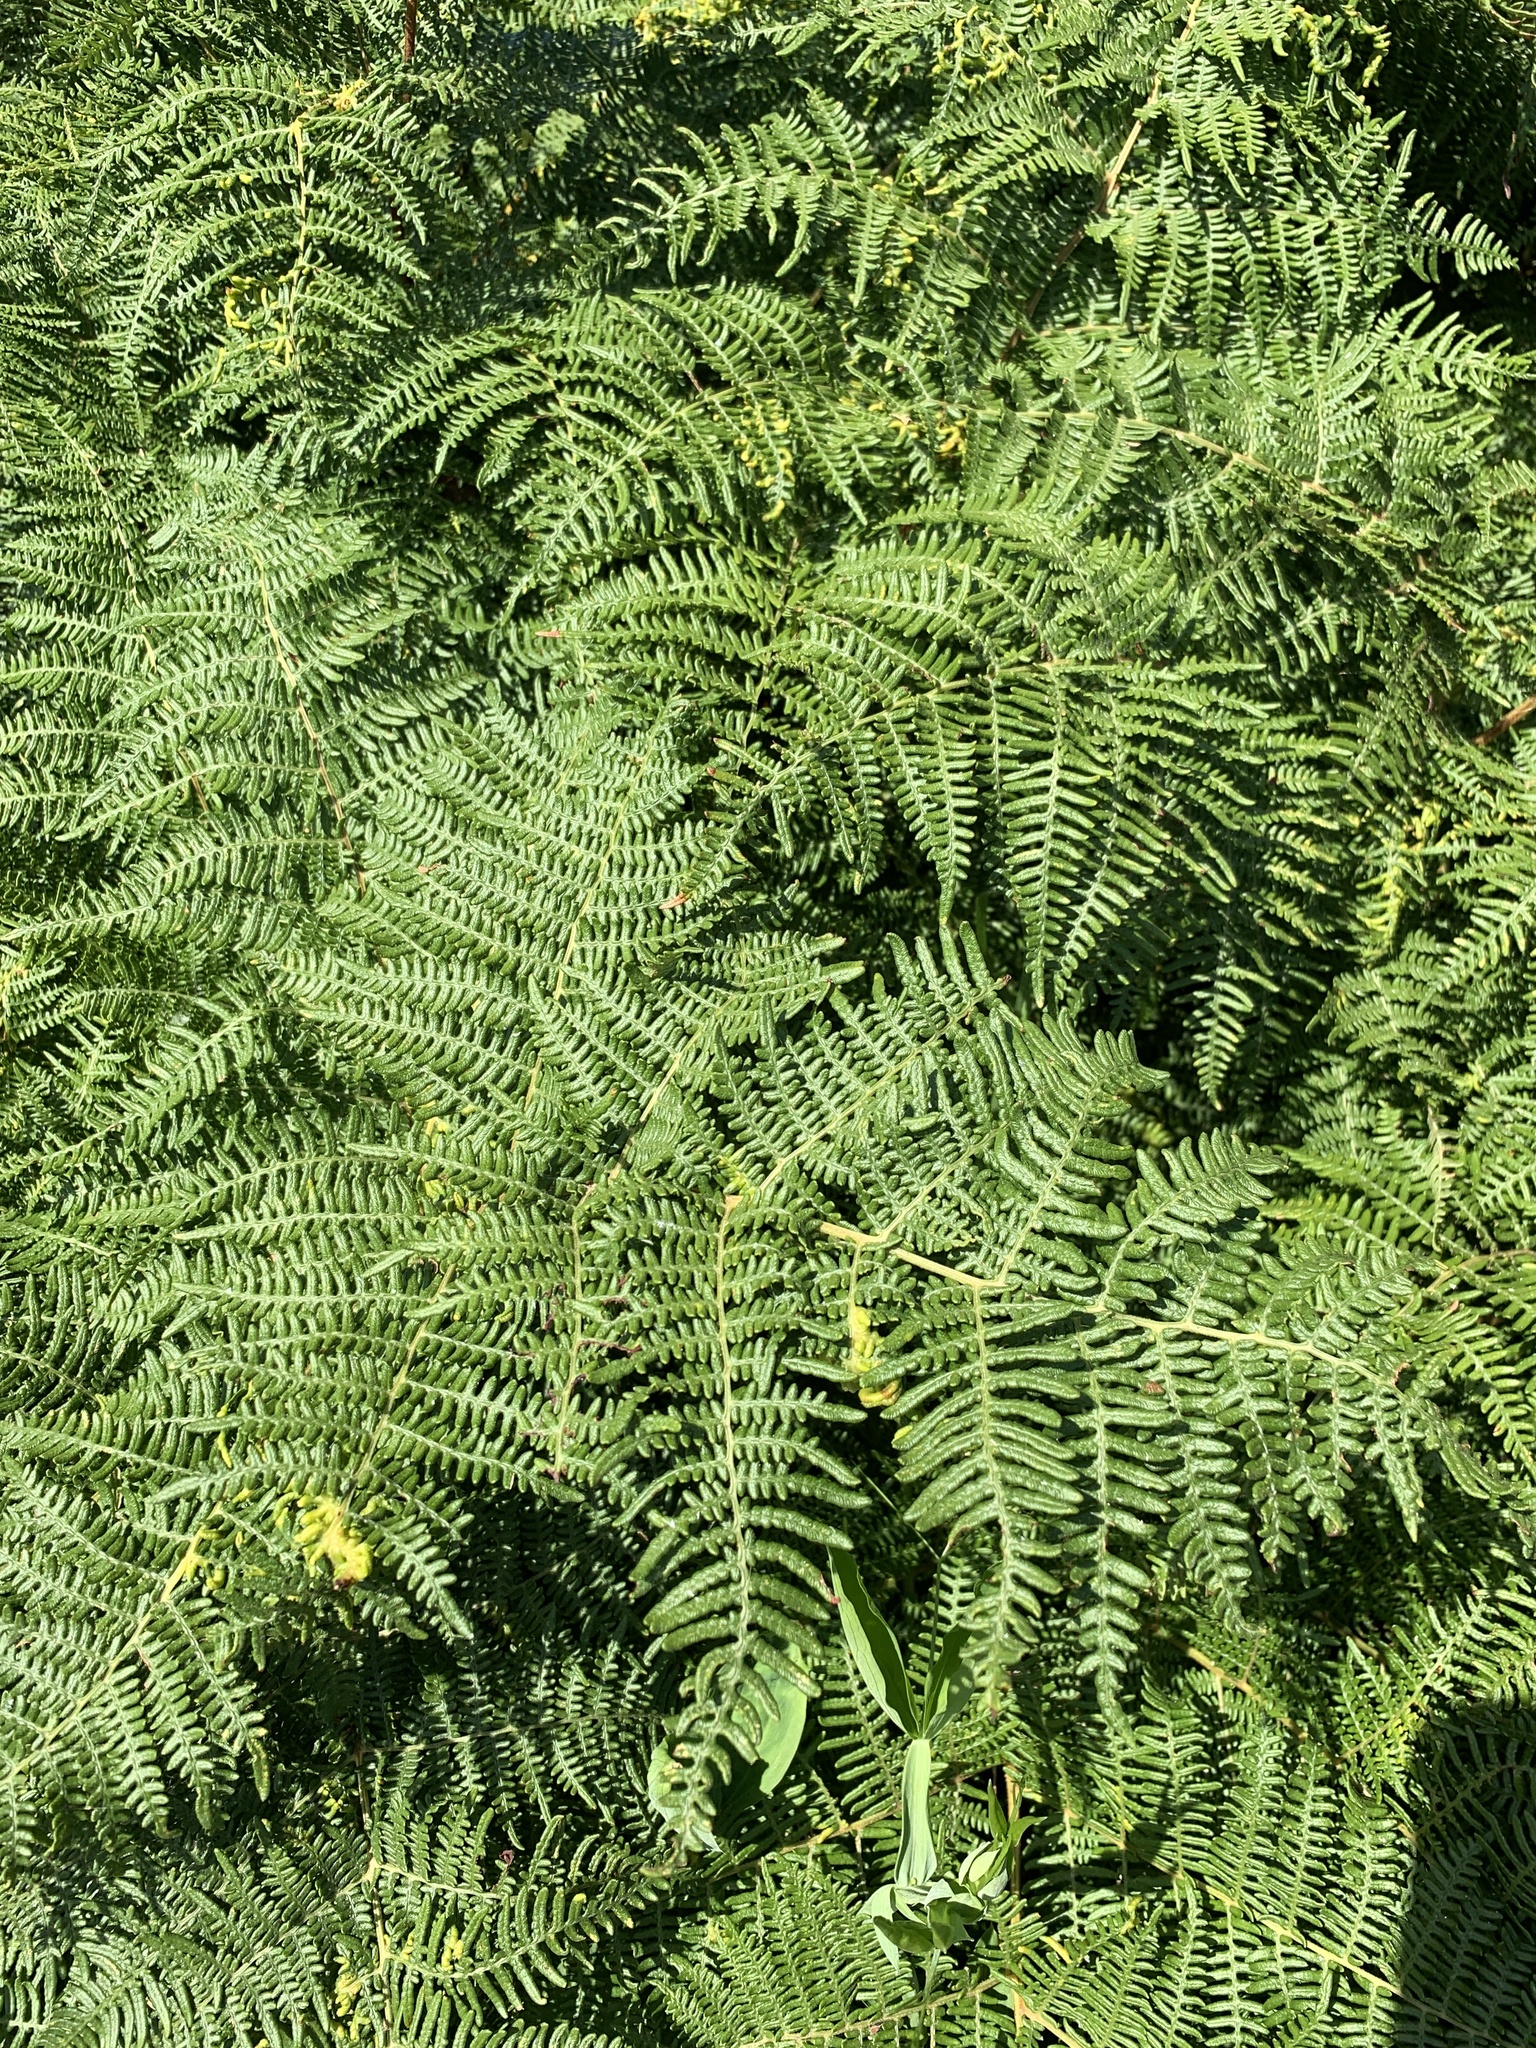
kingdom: Plantae
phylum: Tracheophyta
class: Polypodiopsida
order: Polypodiales
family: Dennstaedtiaceae
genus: Pteridium
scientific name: Pteridium aquilinum
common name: Bracken
